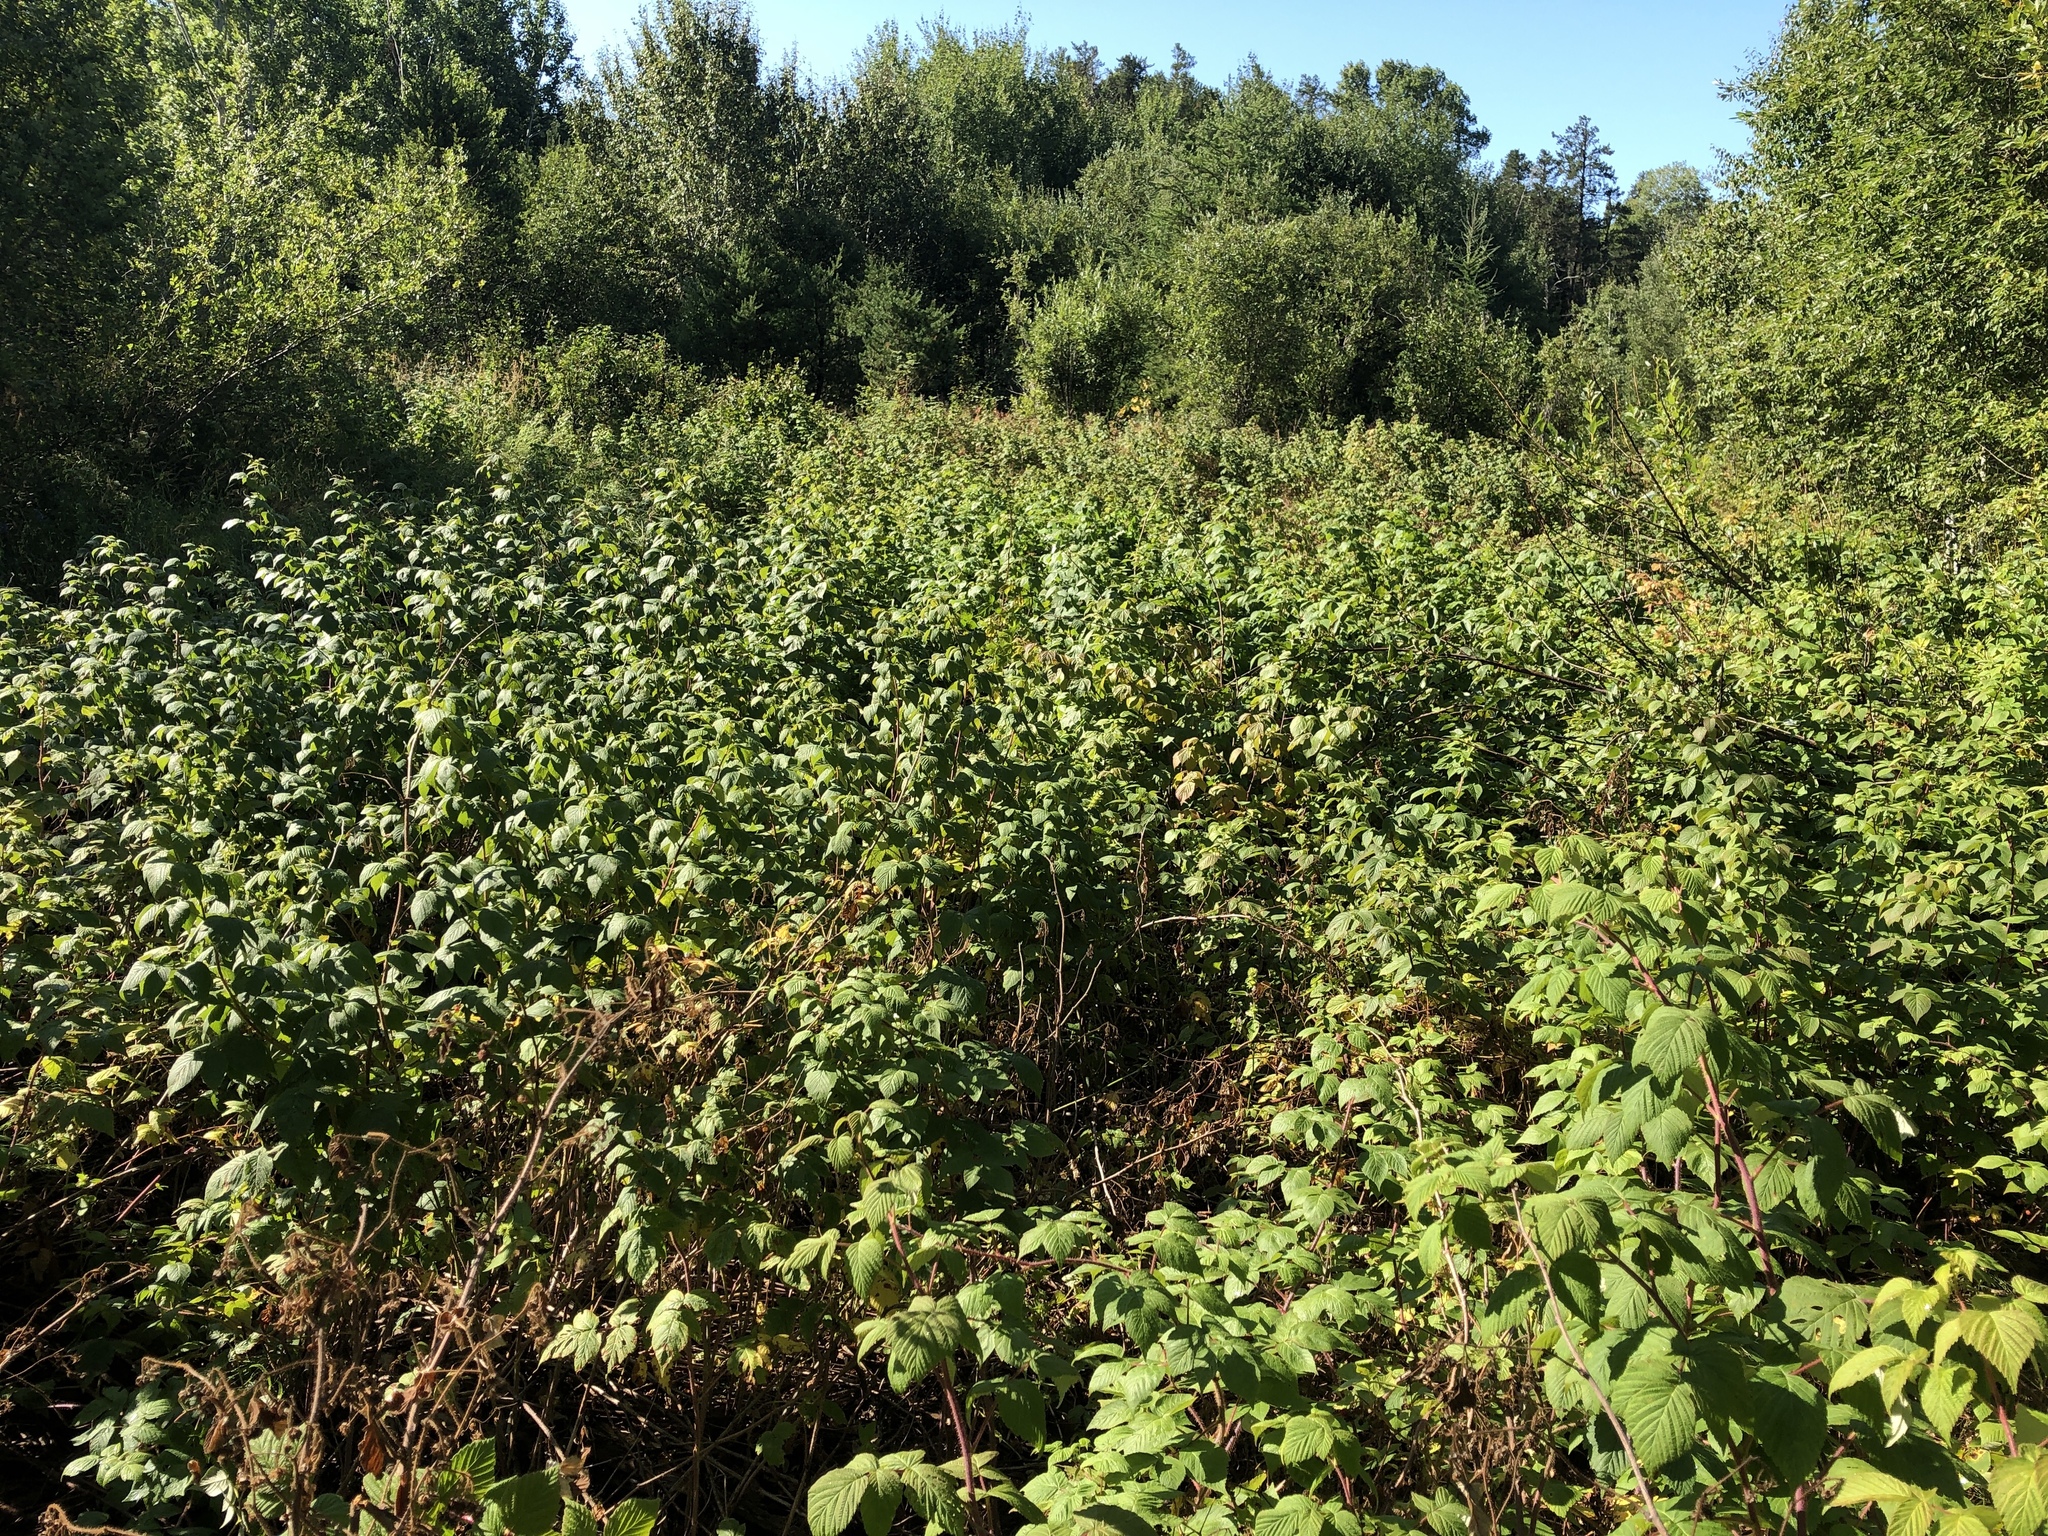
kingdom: Plantae
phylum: Tracheophyta
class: Magnoliopsida
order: Rosales
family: Rosaceae
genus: Rubus
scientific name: Rubus idaeus
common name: Raspberry
